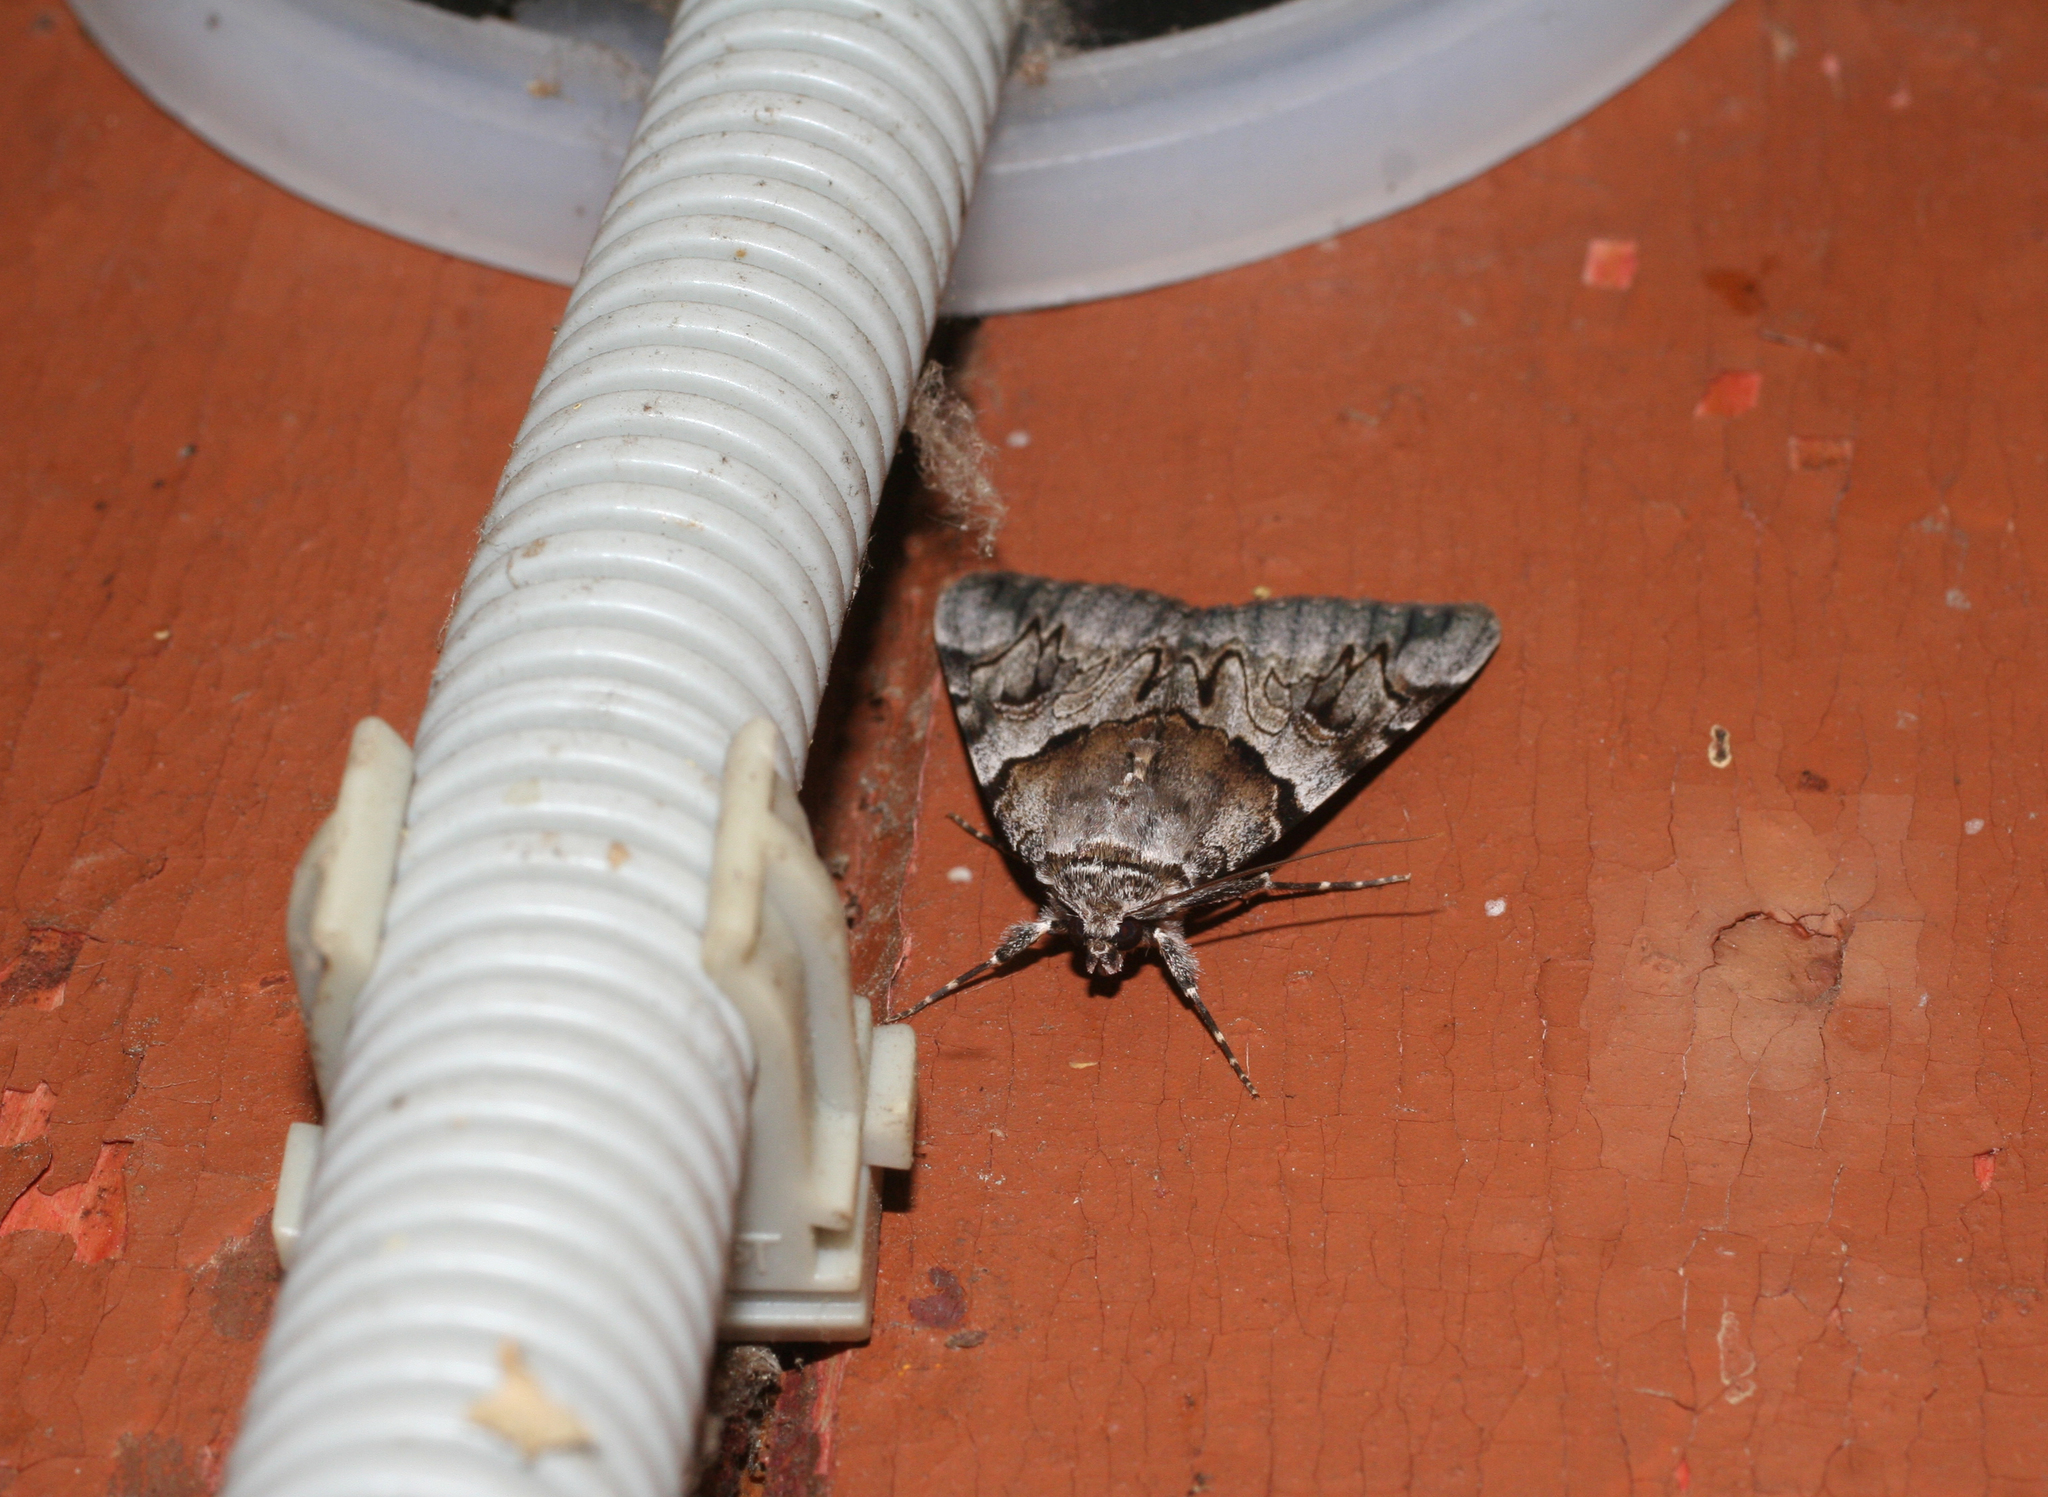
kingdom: Animalia
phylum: Arthropoda
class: Insecta
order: Lepidoptera
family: Erebidae
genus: Catocala
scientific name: Catocala fulminea
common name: Yellow bands underwing
